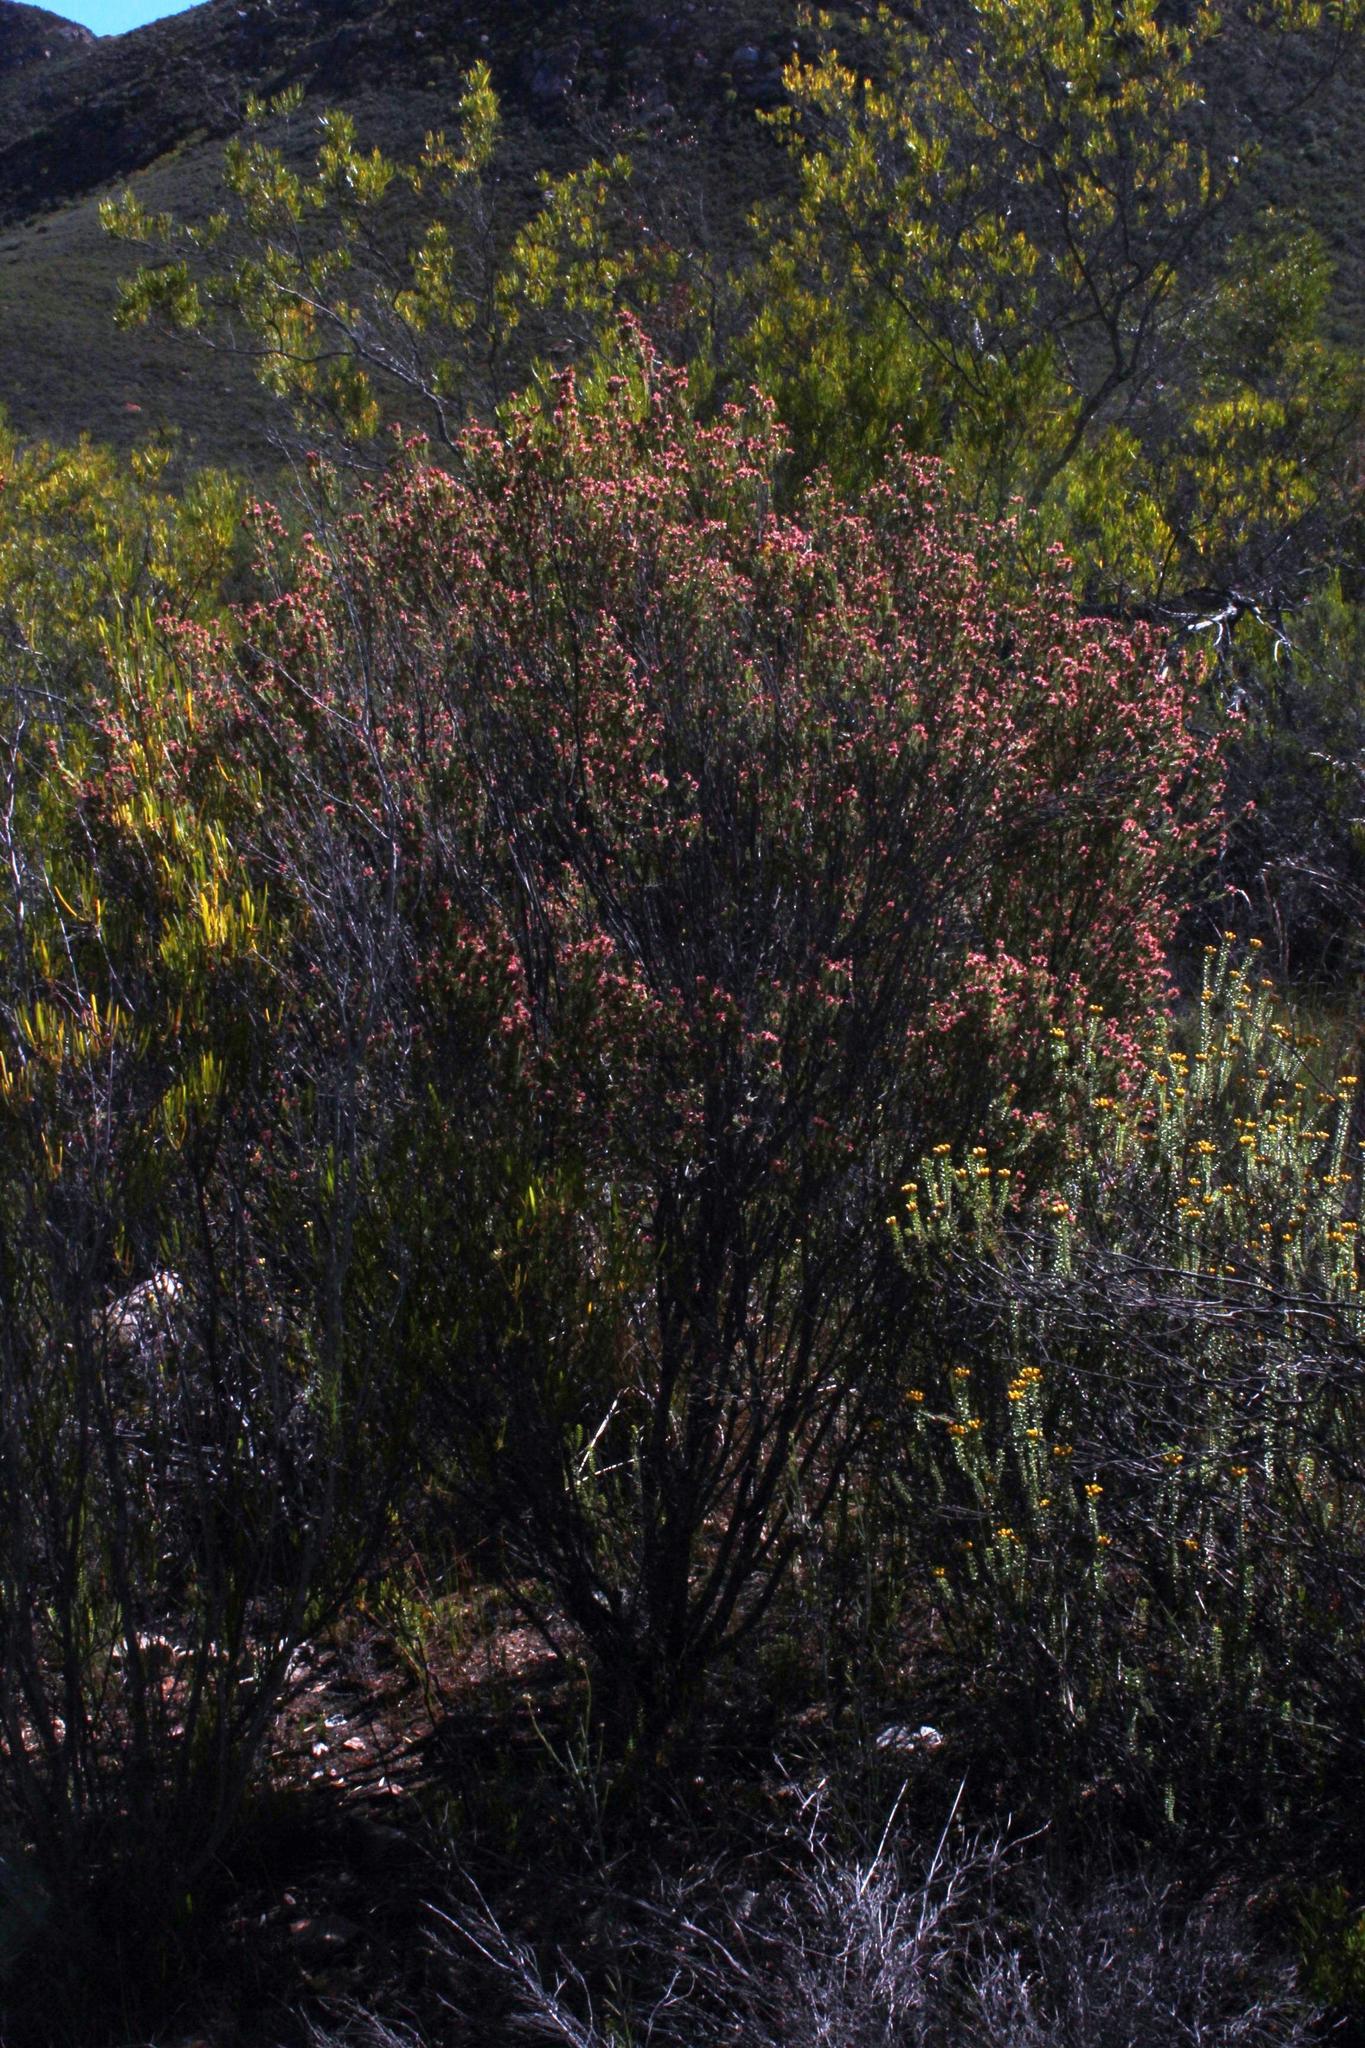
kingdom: Plantae
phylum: Tracheophyta
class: Magnoliopsida
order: Malvales
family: Thymelaeaceae
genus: Passerina
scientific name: Passerina obtusifolia
